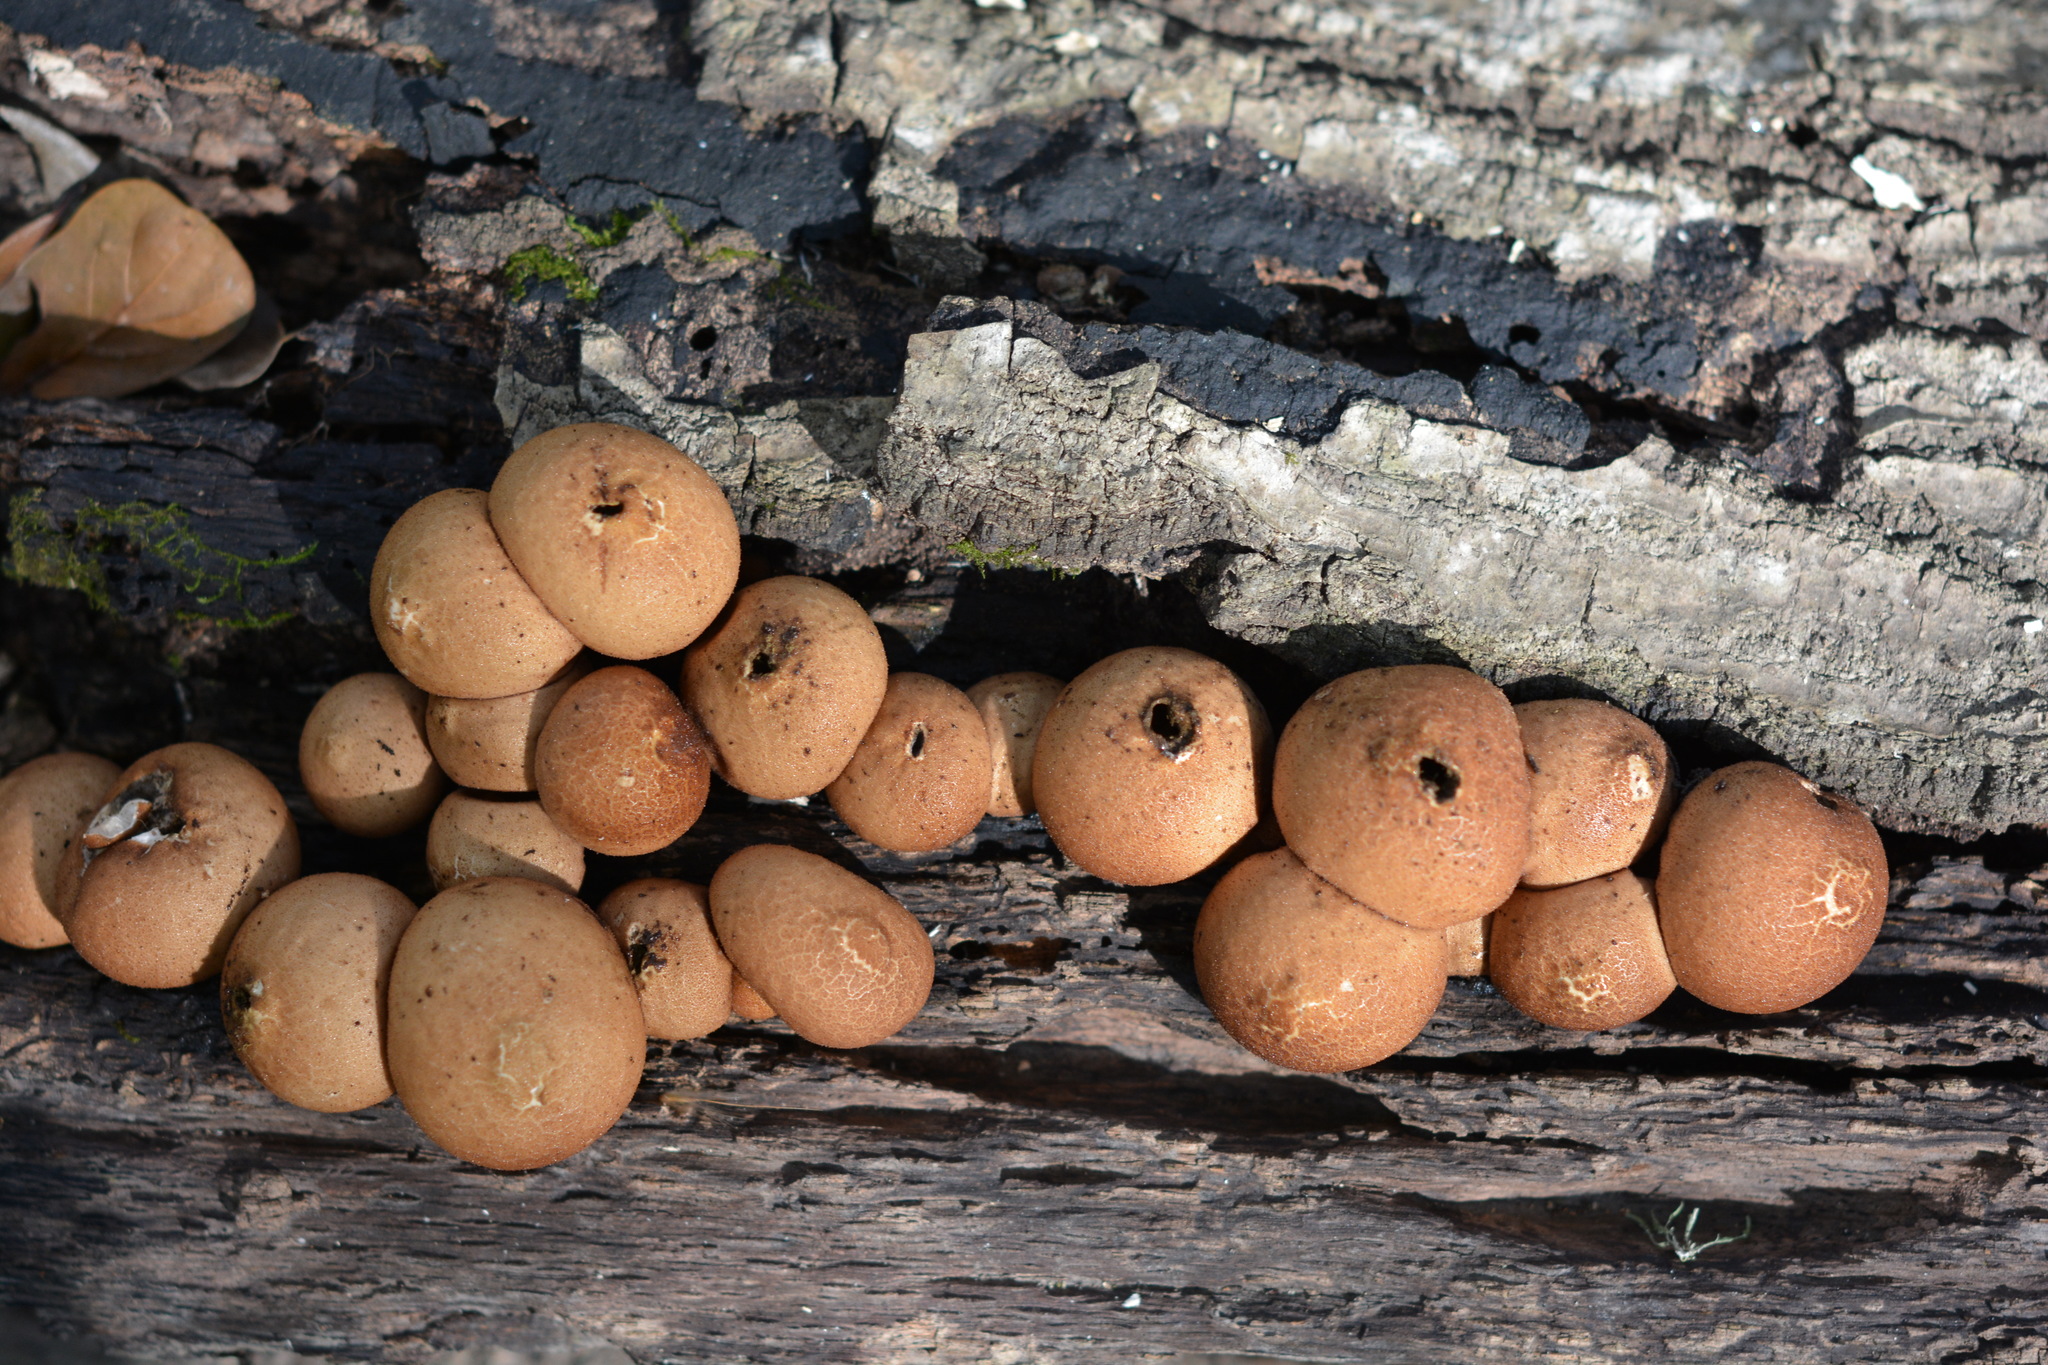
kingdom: Fungi
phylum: Basidiomycota
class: Agaricomycetes
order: Agaricales
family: Lycoperdaceae
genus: Apioperdon
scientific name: Apioperdon pyriforme
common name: Pear-shaped puffball
